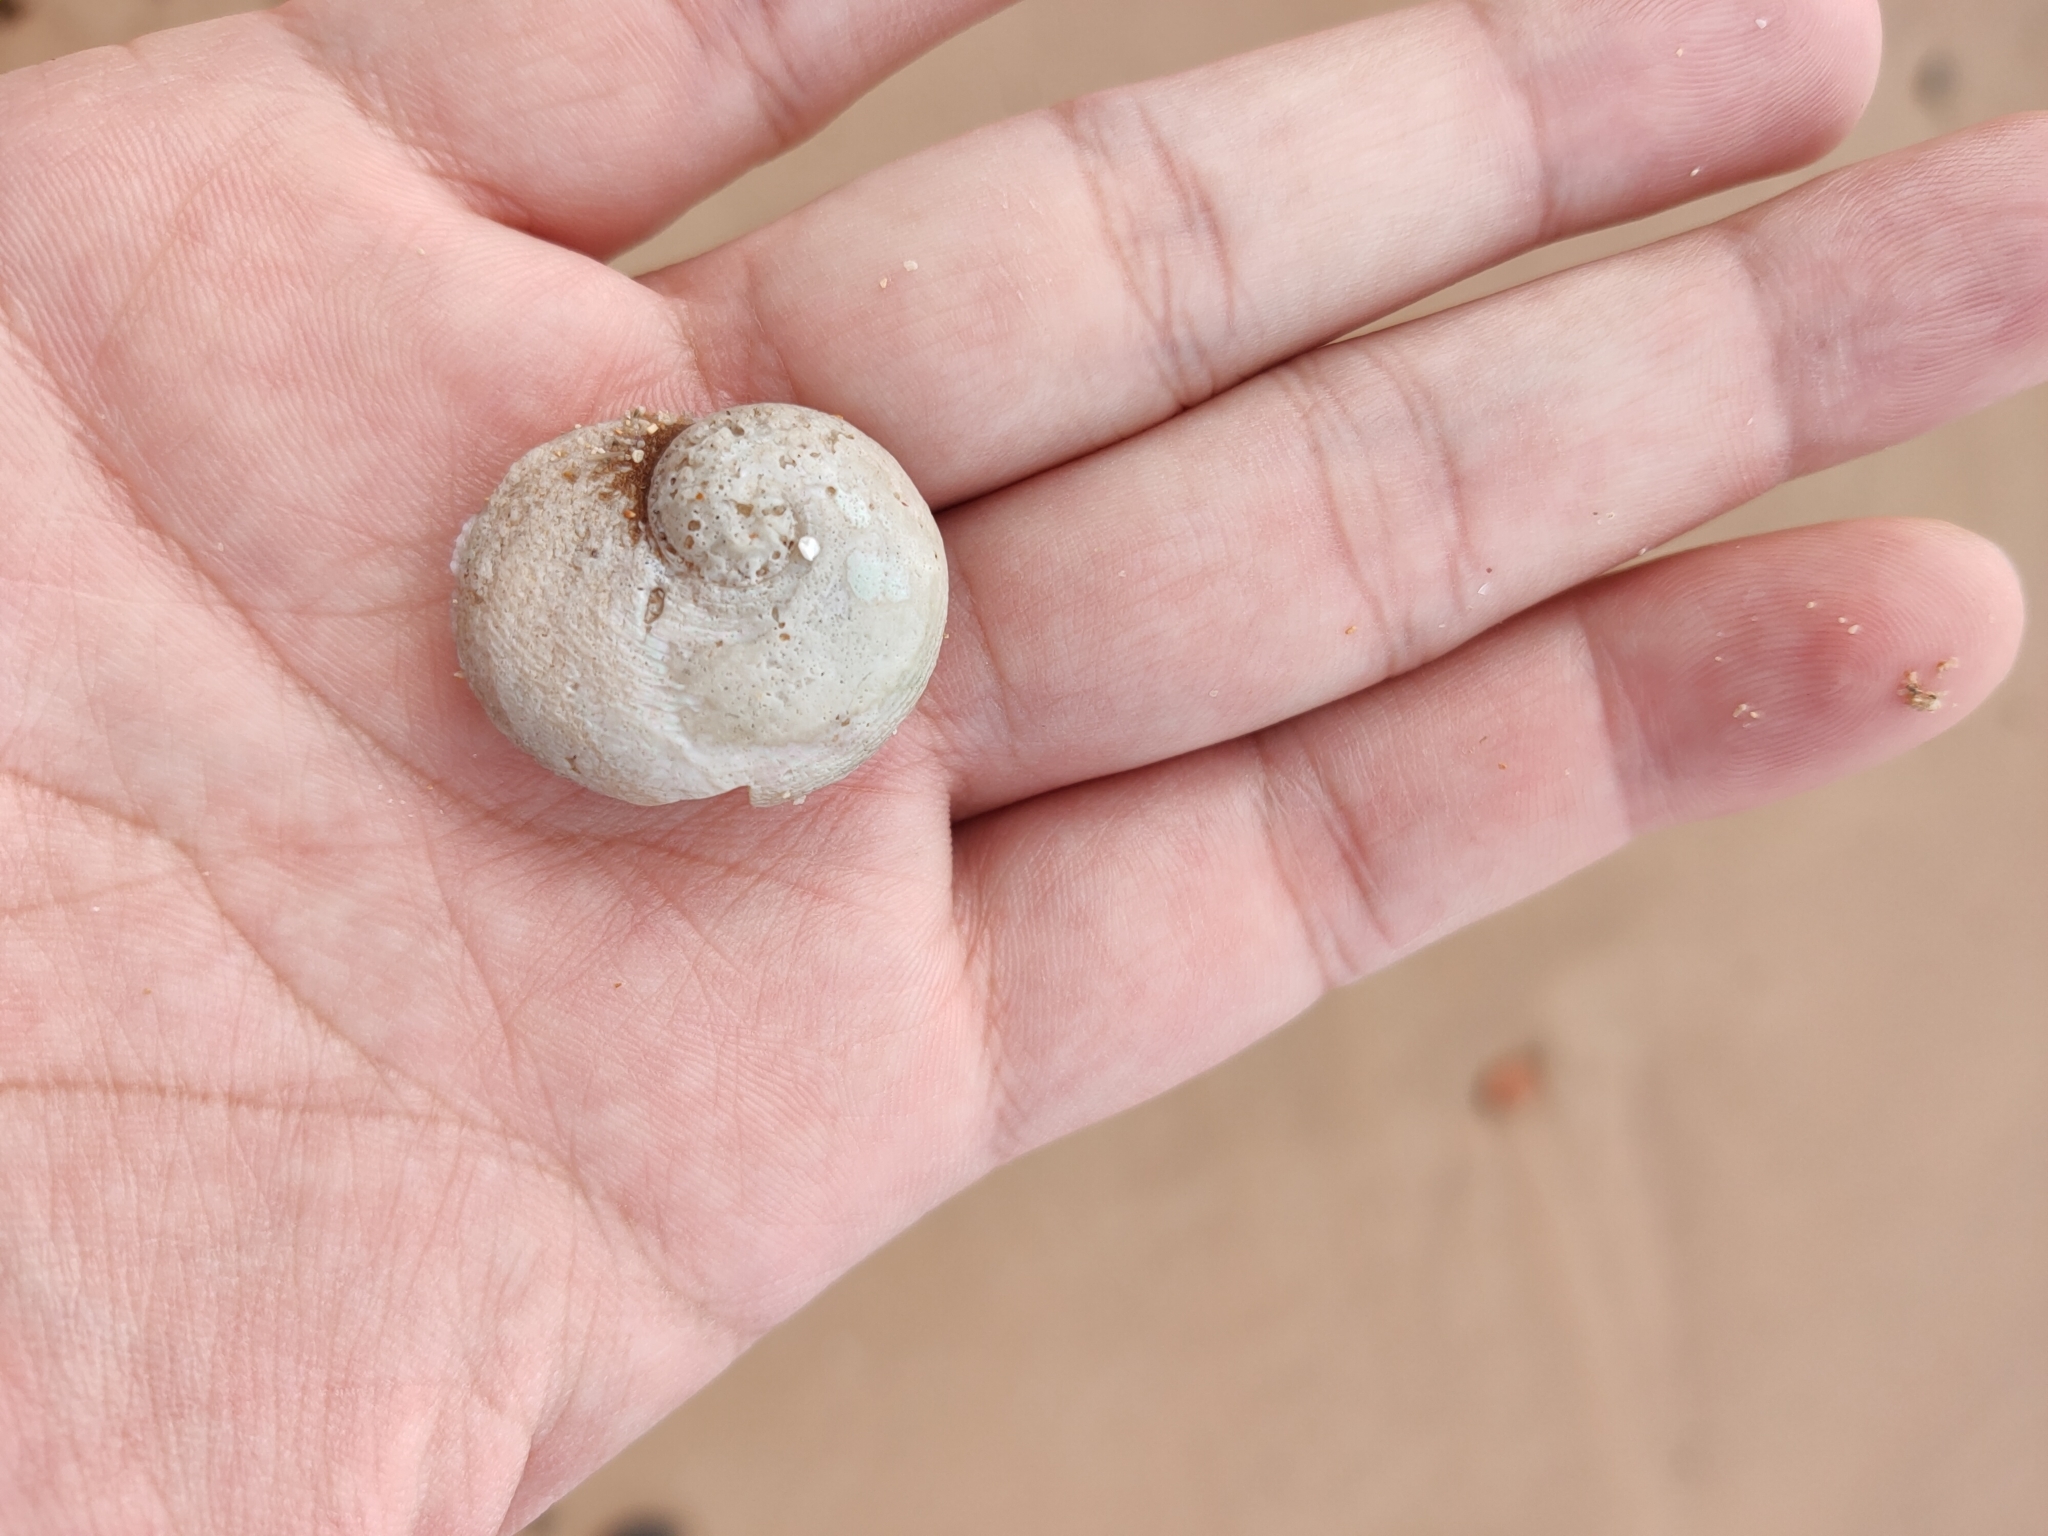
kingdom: Animalia
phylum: Mollusca
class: Gastropoda
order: Seguenziida
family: Chilodontaidae
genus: Granata
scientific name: Granata imbricata
